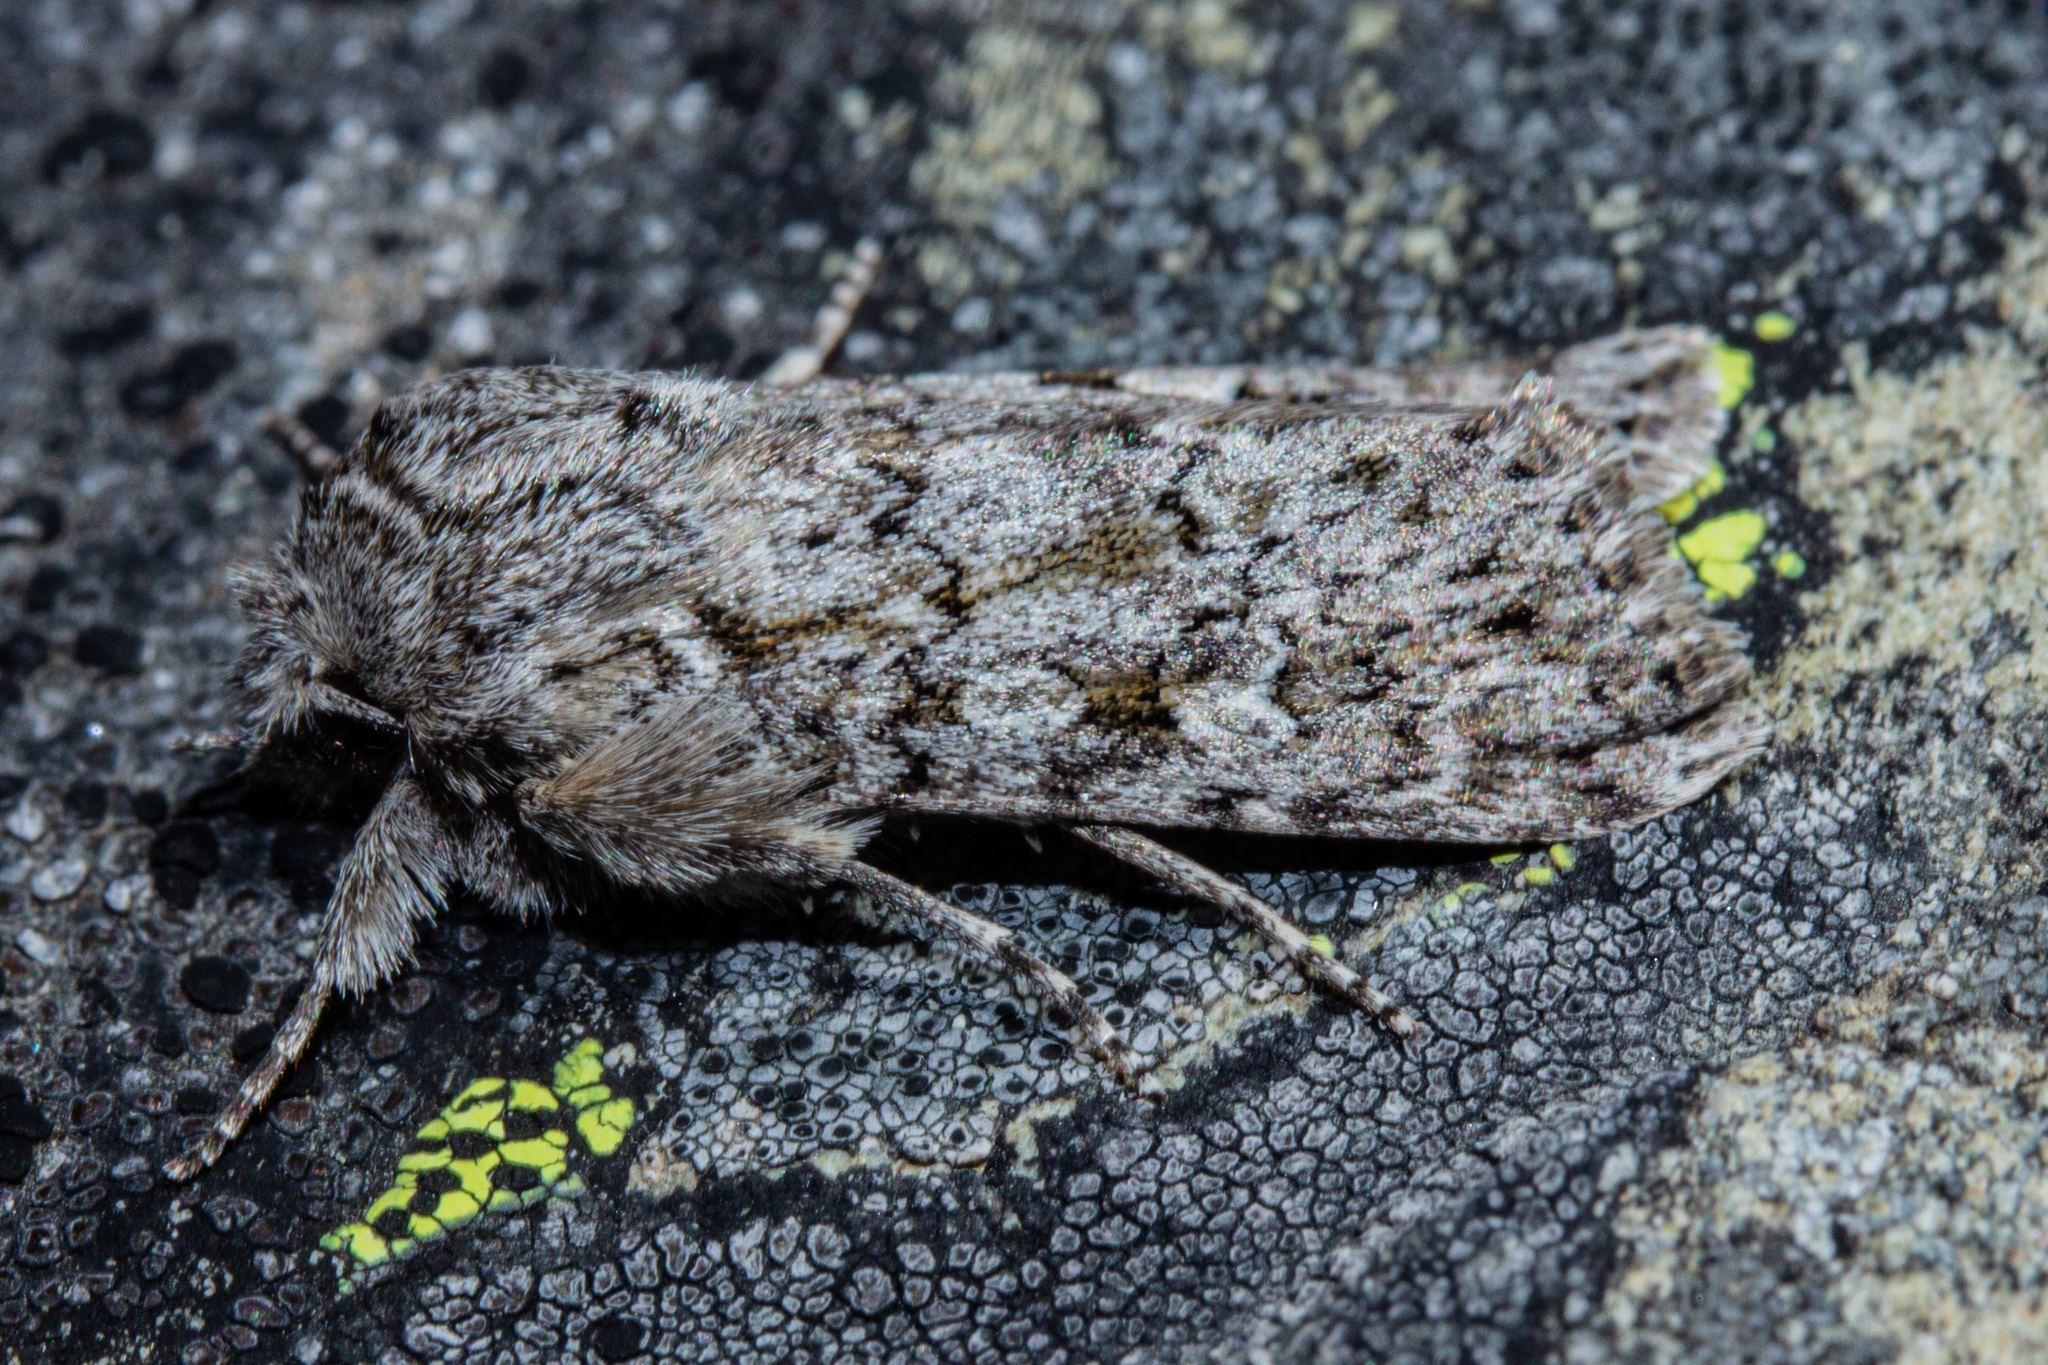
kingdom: Animalia
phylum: Arthropoda
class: Insecta
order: Lepidoptera
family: Noctuidae
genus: Physetica
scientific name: Physetica cucullina
